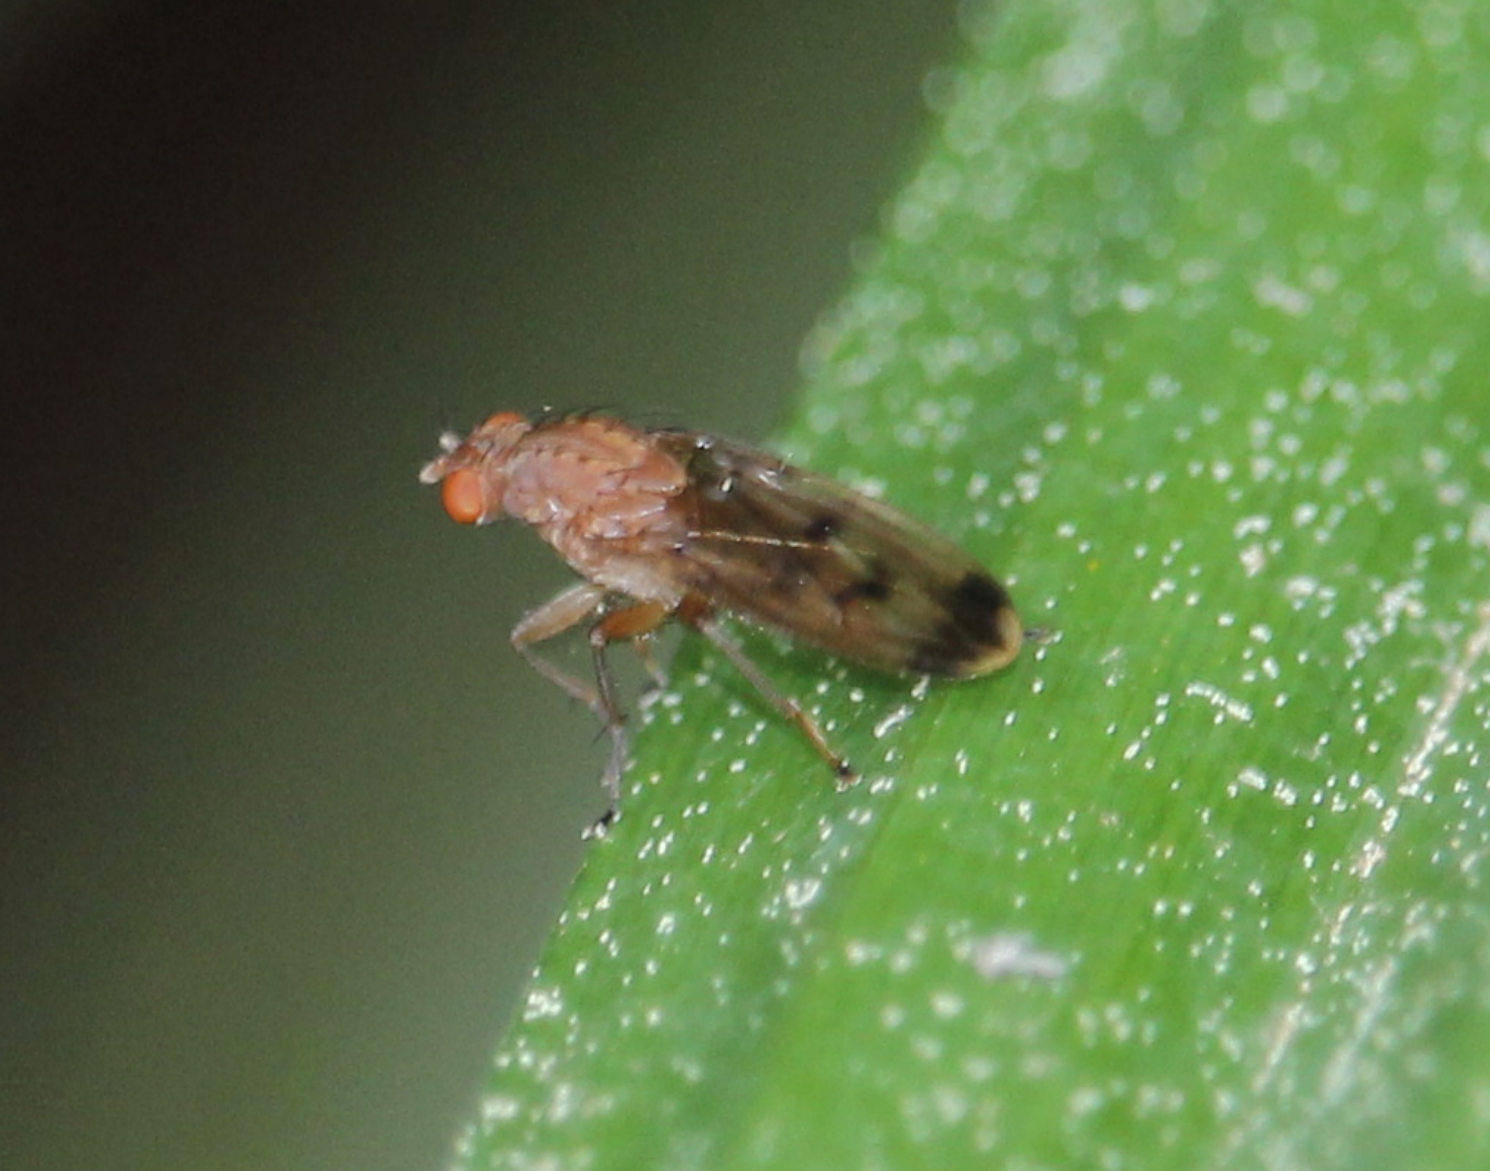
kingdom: Animalia
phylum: Arthropoda
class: Insecta
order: Diptera
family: Heleomyzidae
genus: Suillia
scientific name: Suillia variegata
